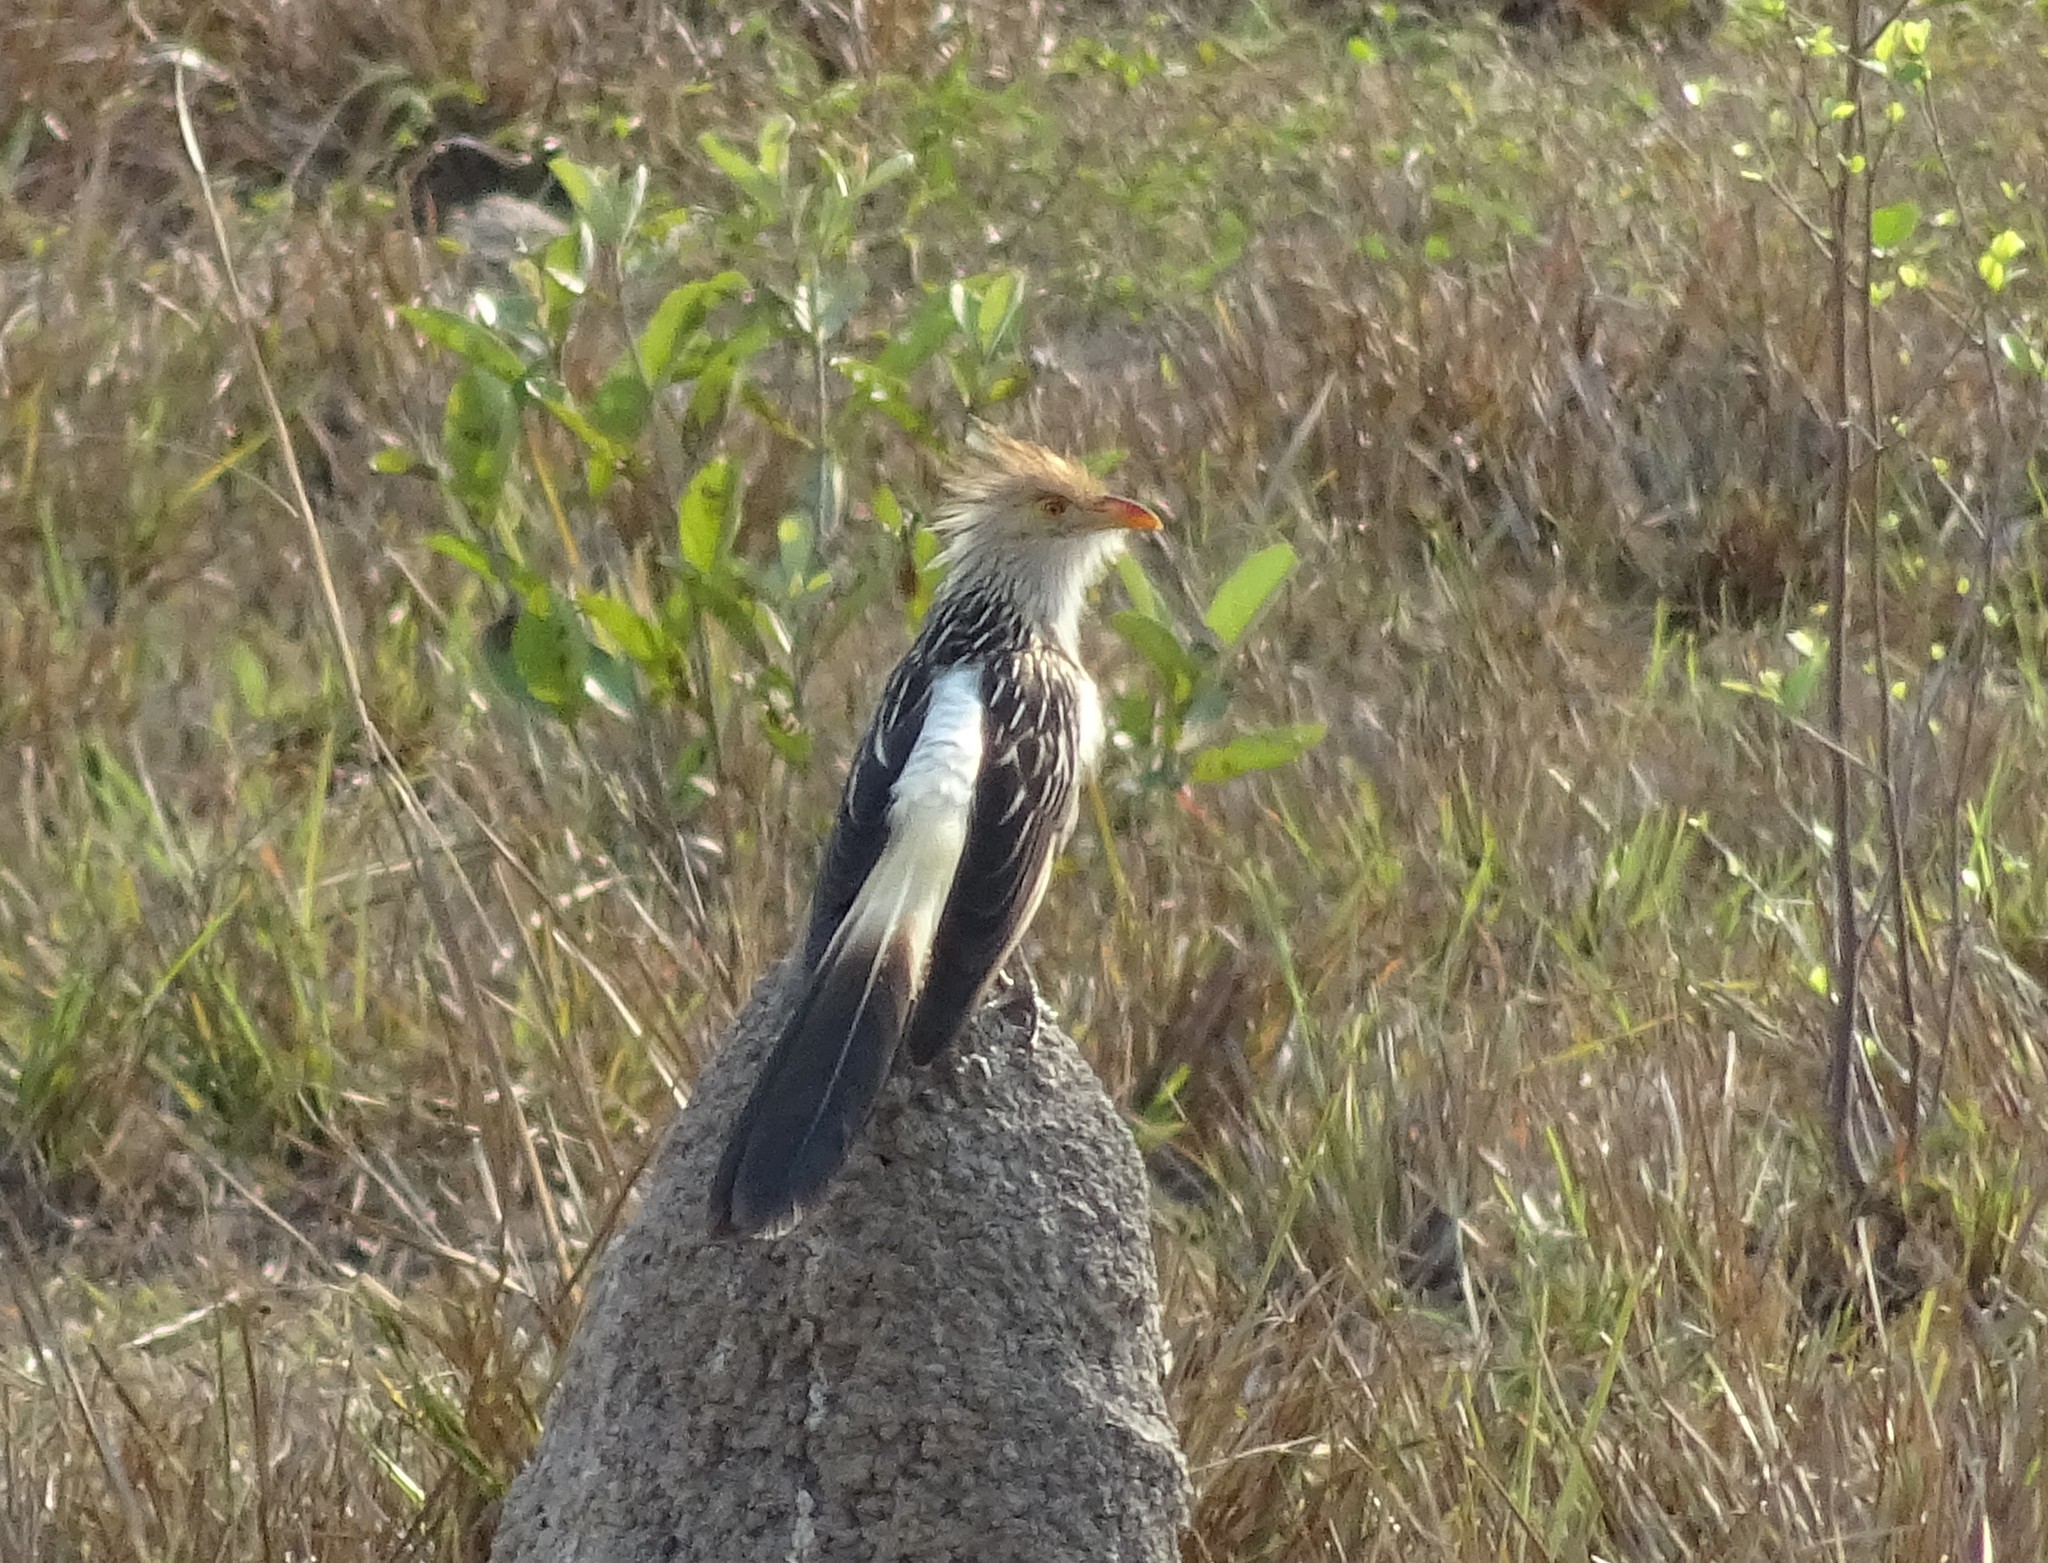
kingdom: Animalia
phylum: Chordata
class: Aves
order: Cuculiformes
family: Cuculidae
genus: Guira
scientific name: Guira guira
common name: Guira cuckoo
